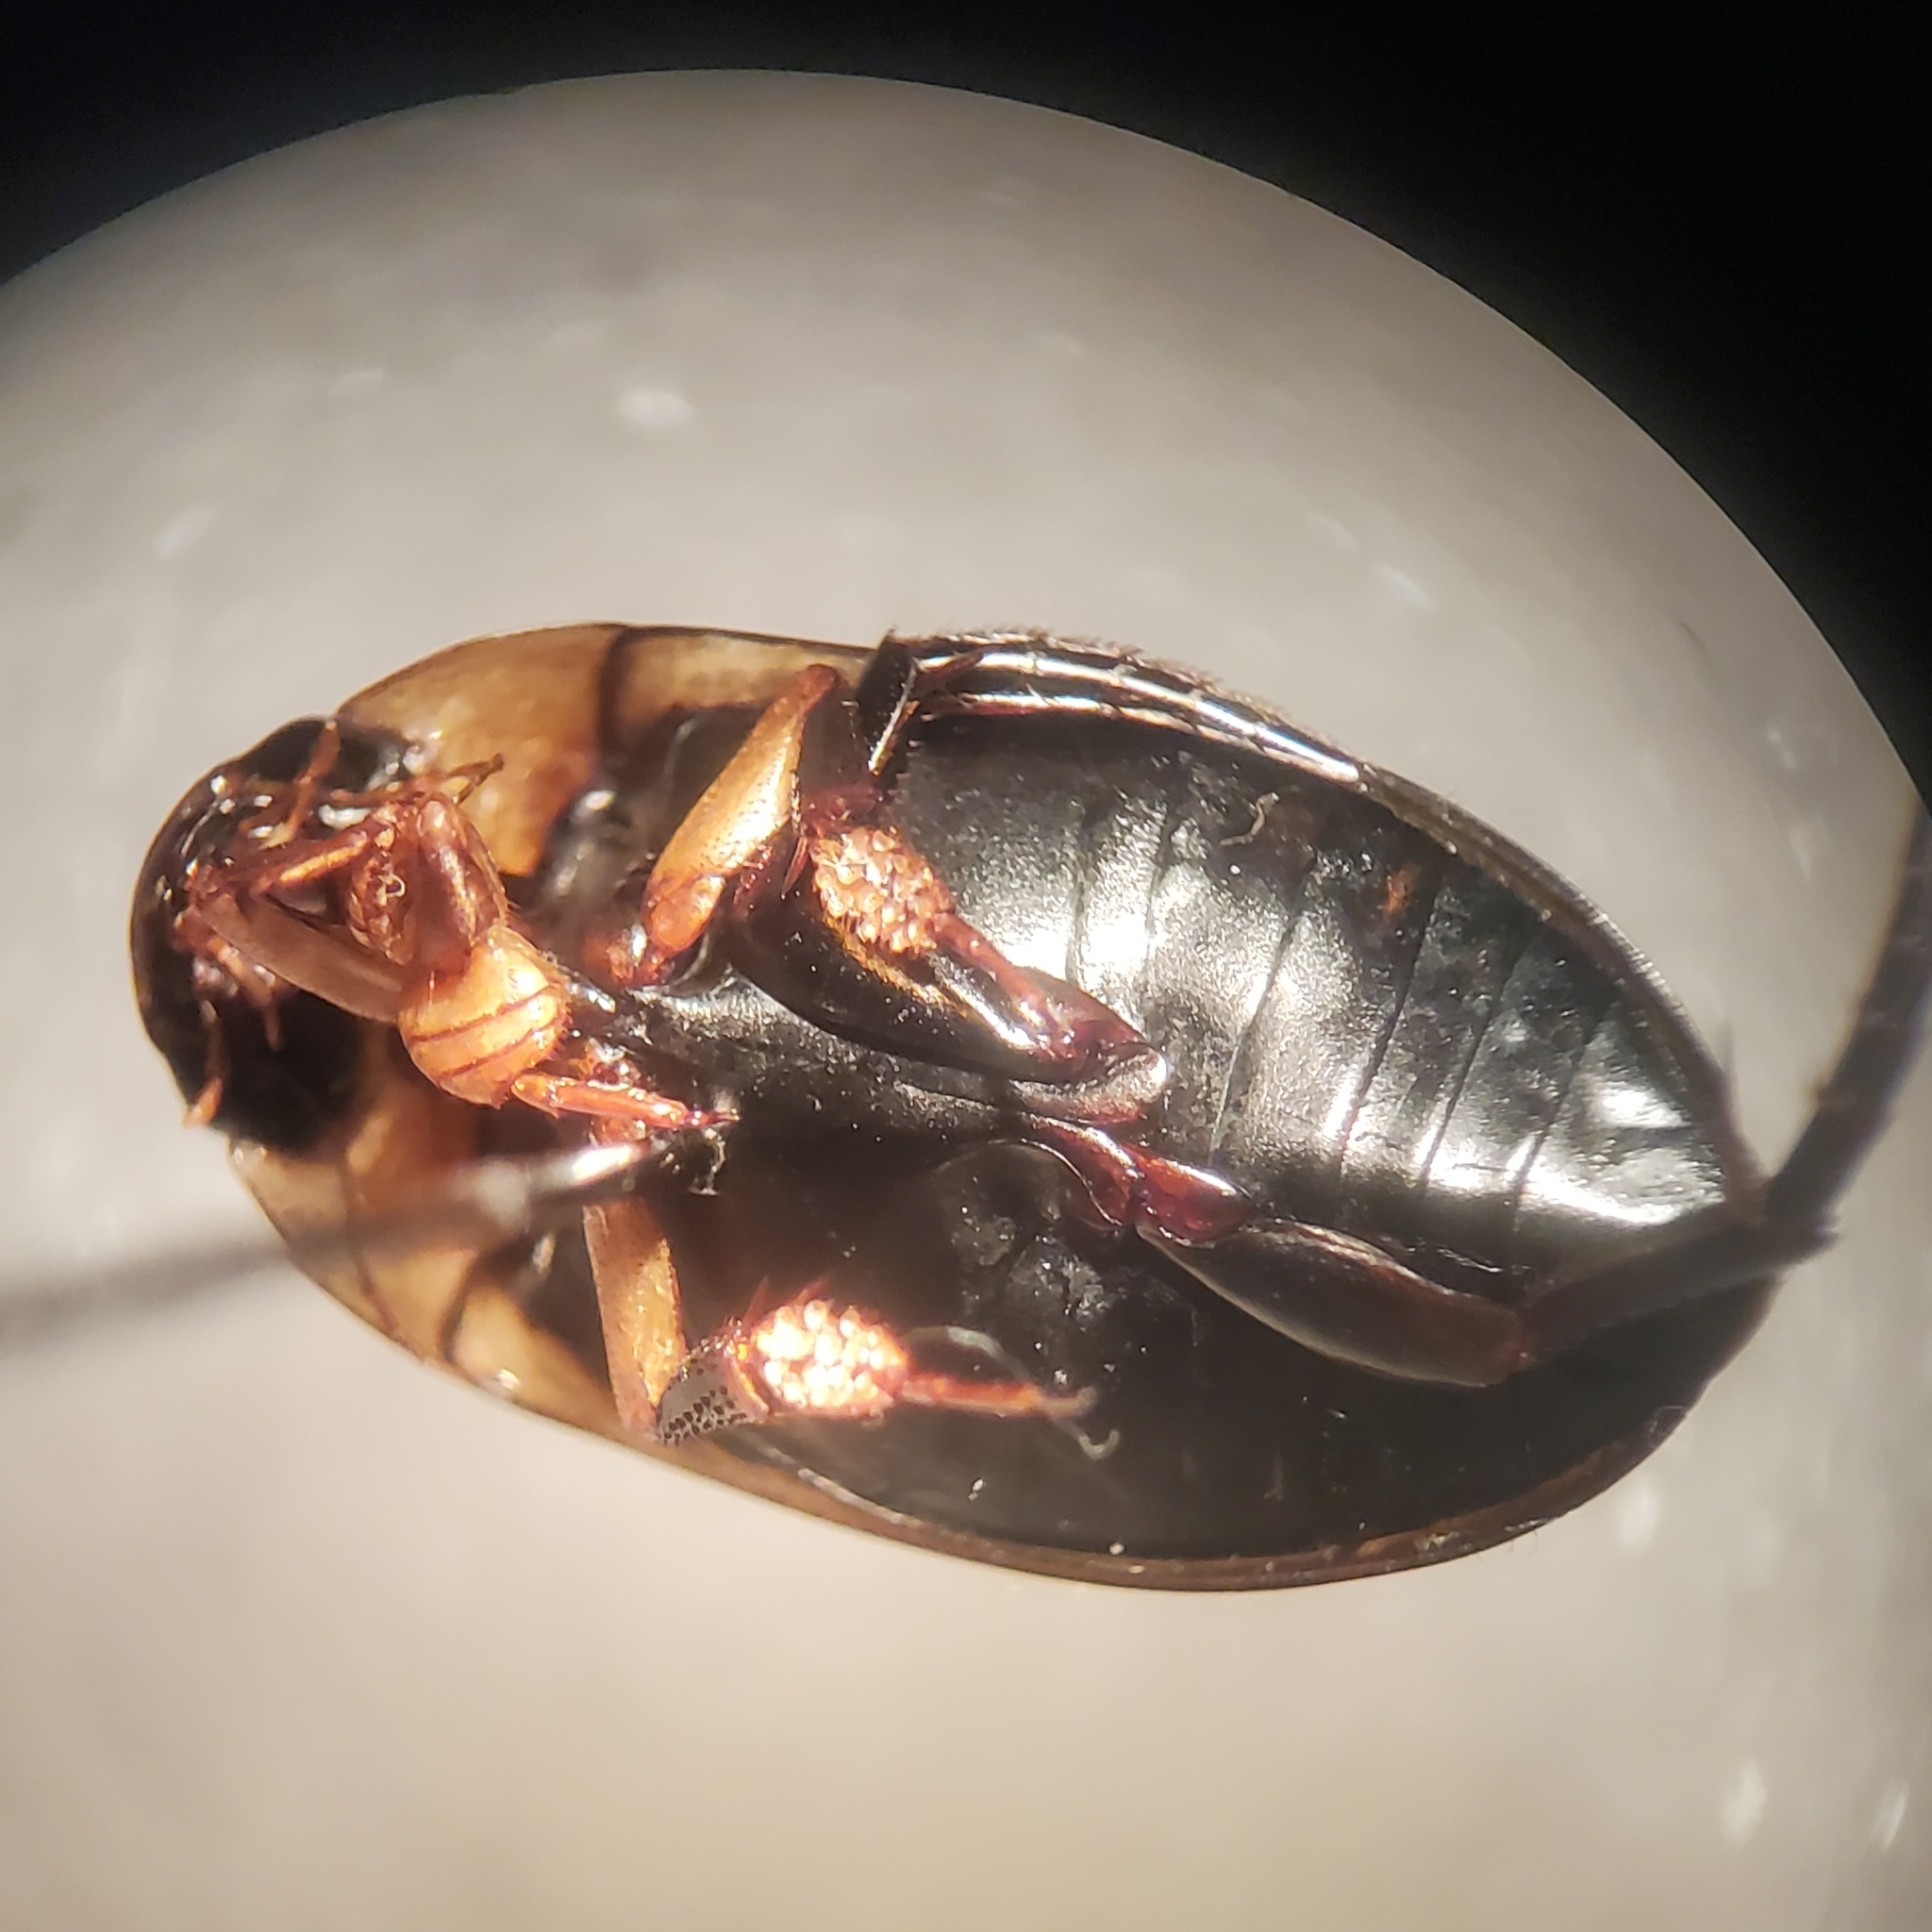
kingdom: Animalia
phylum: Arthropoda
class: Insecta
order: Coleoptera
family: Dytiscidae
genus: Hydaticus
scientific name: Hydaticus aruspex
